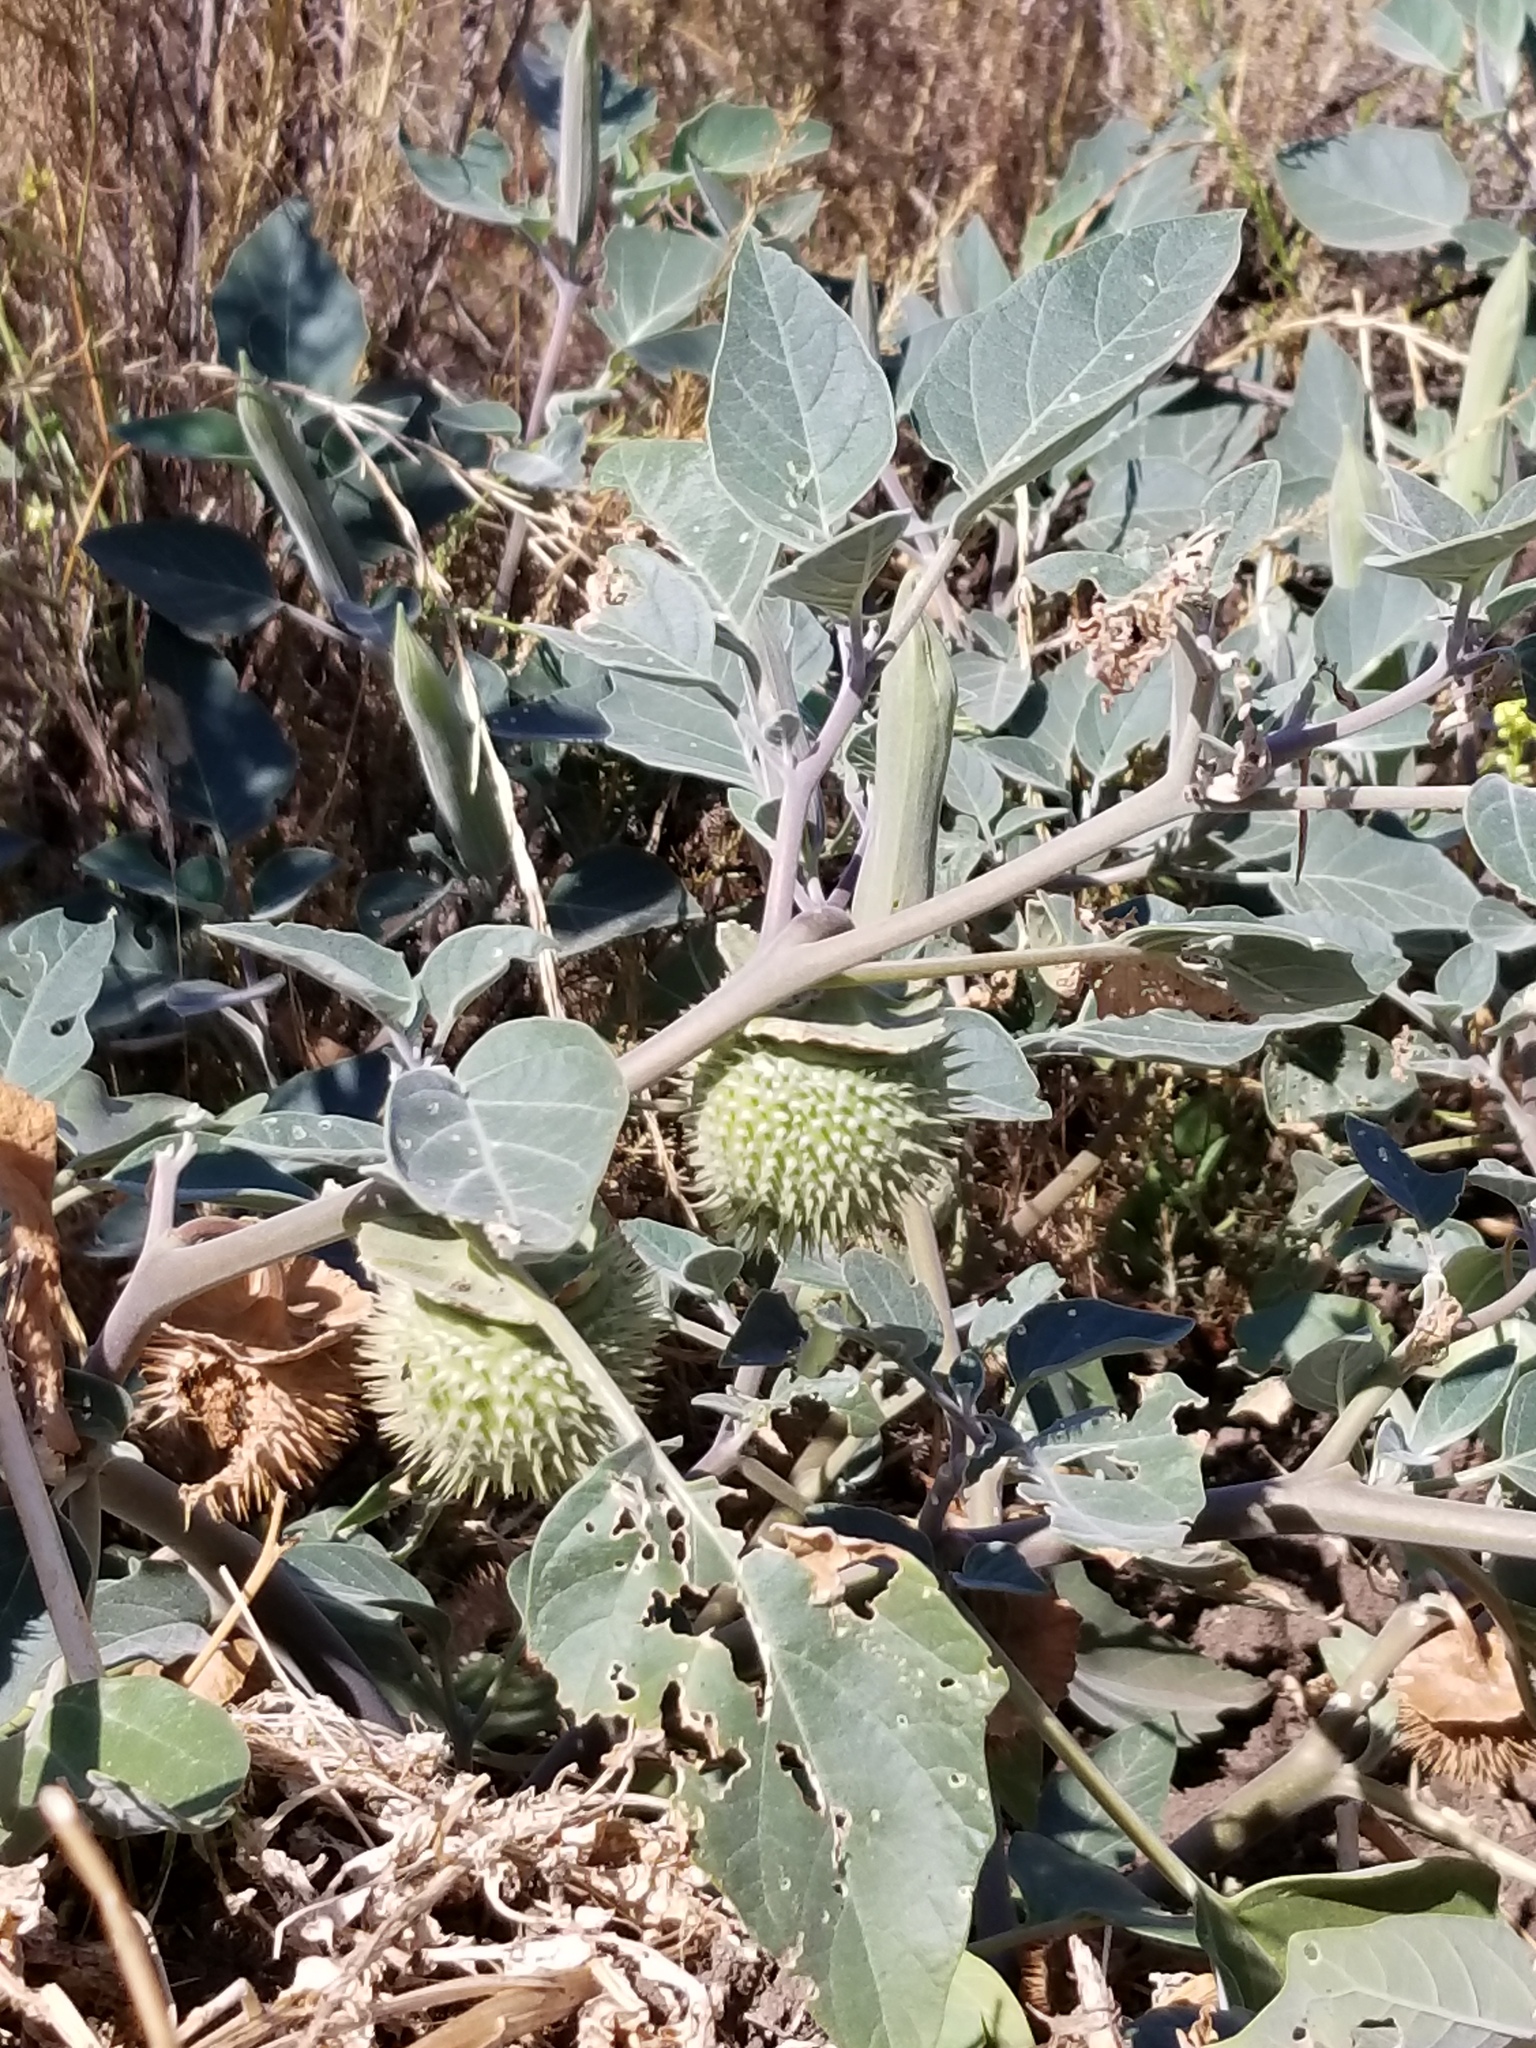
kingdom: Plantae
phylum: Tracheophyta
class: Magnoliopsida
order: Solanales
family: Solanaceae
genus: Datura
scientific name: Datura wrightii
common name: Sacred thorn-apple
